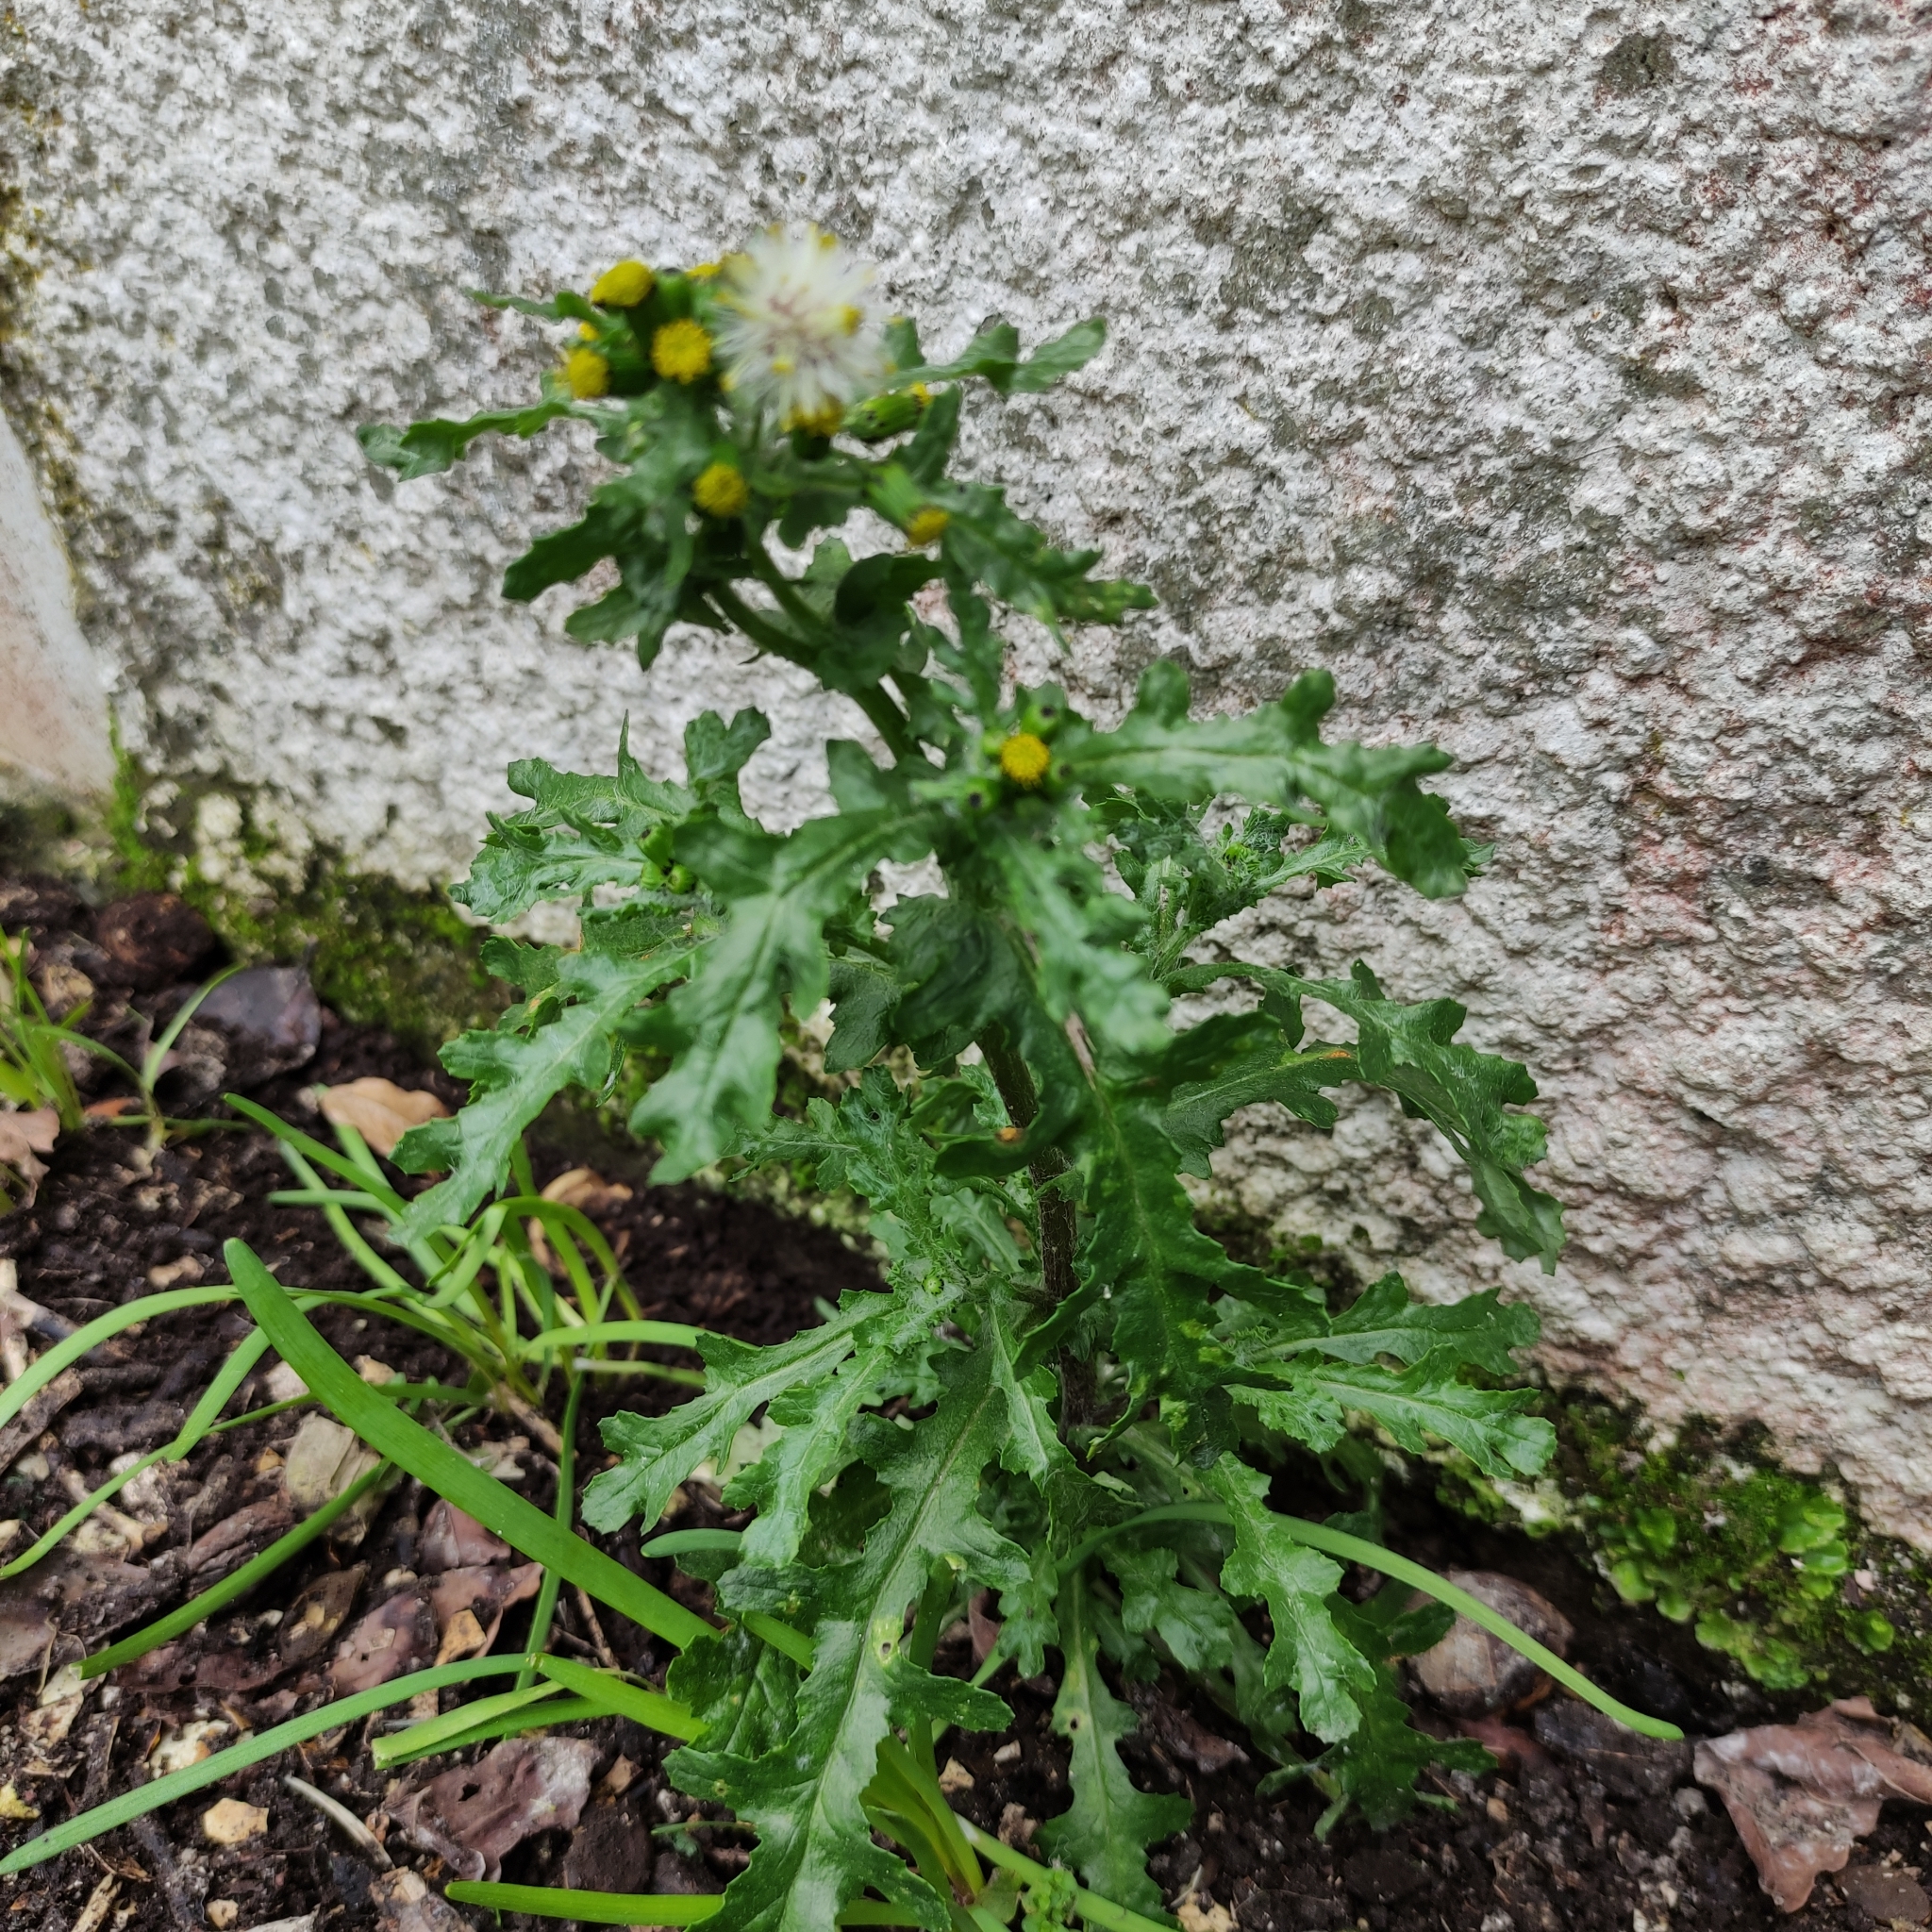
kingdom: Plantae
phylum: Tracheophyta
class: Magnoliopsida
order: Asterales
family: Asteraceae
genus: Senecio
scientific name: Senecio vulgaris
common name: Old-man-in-the-spring
